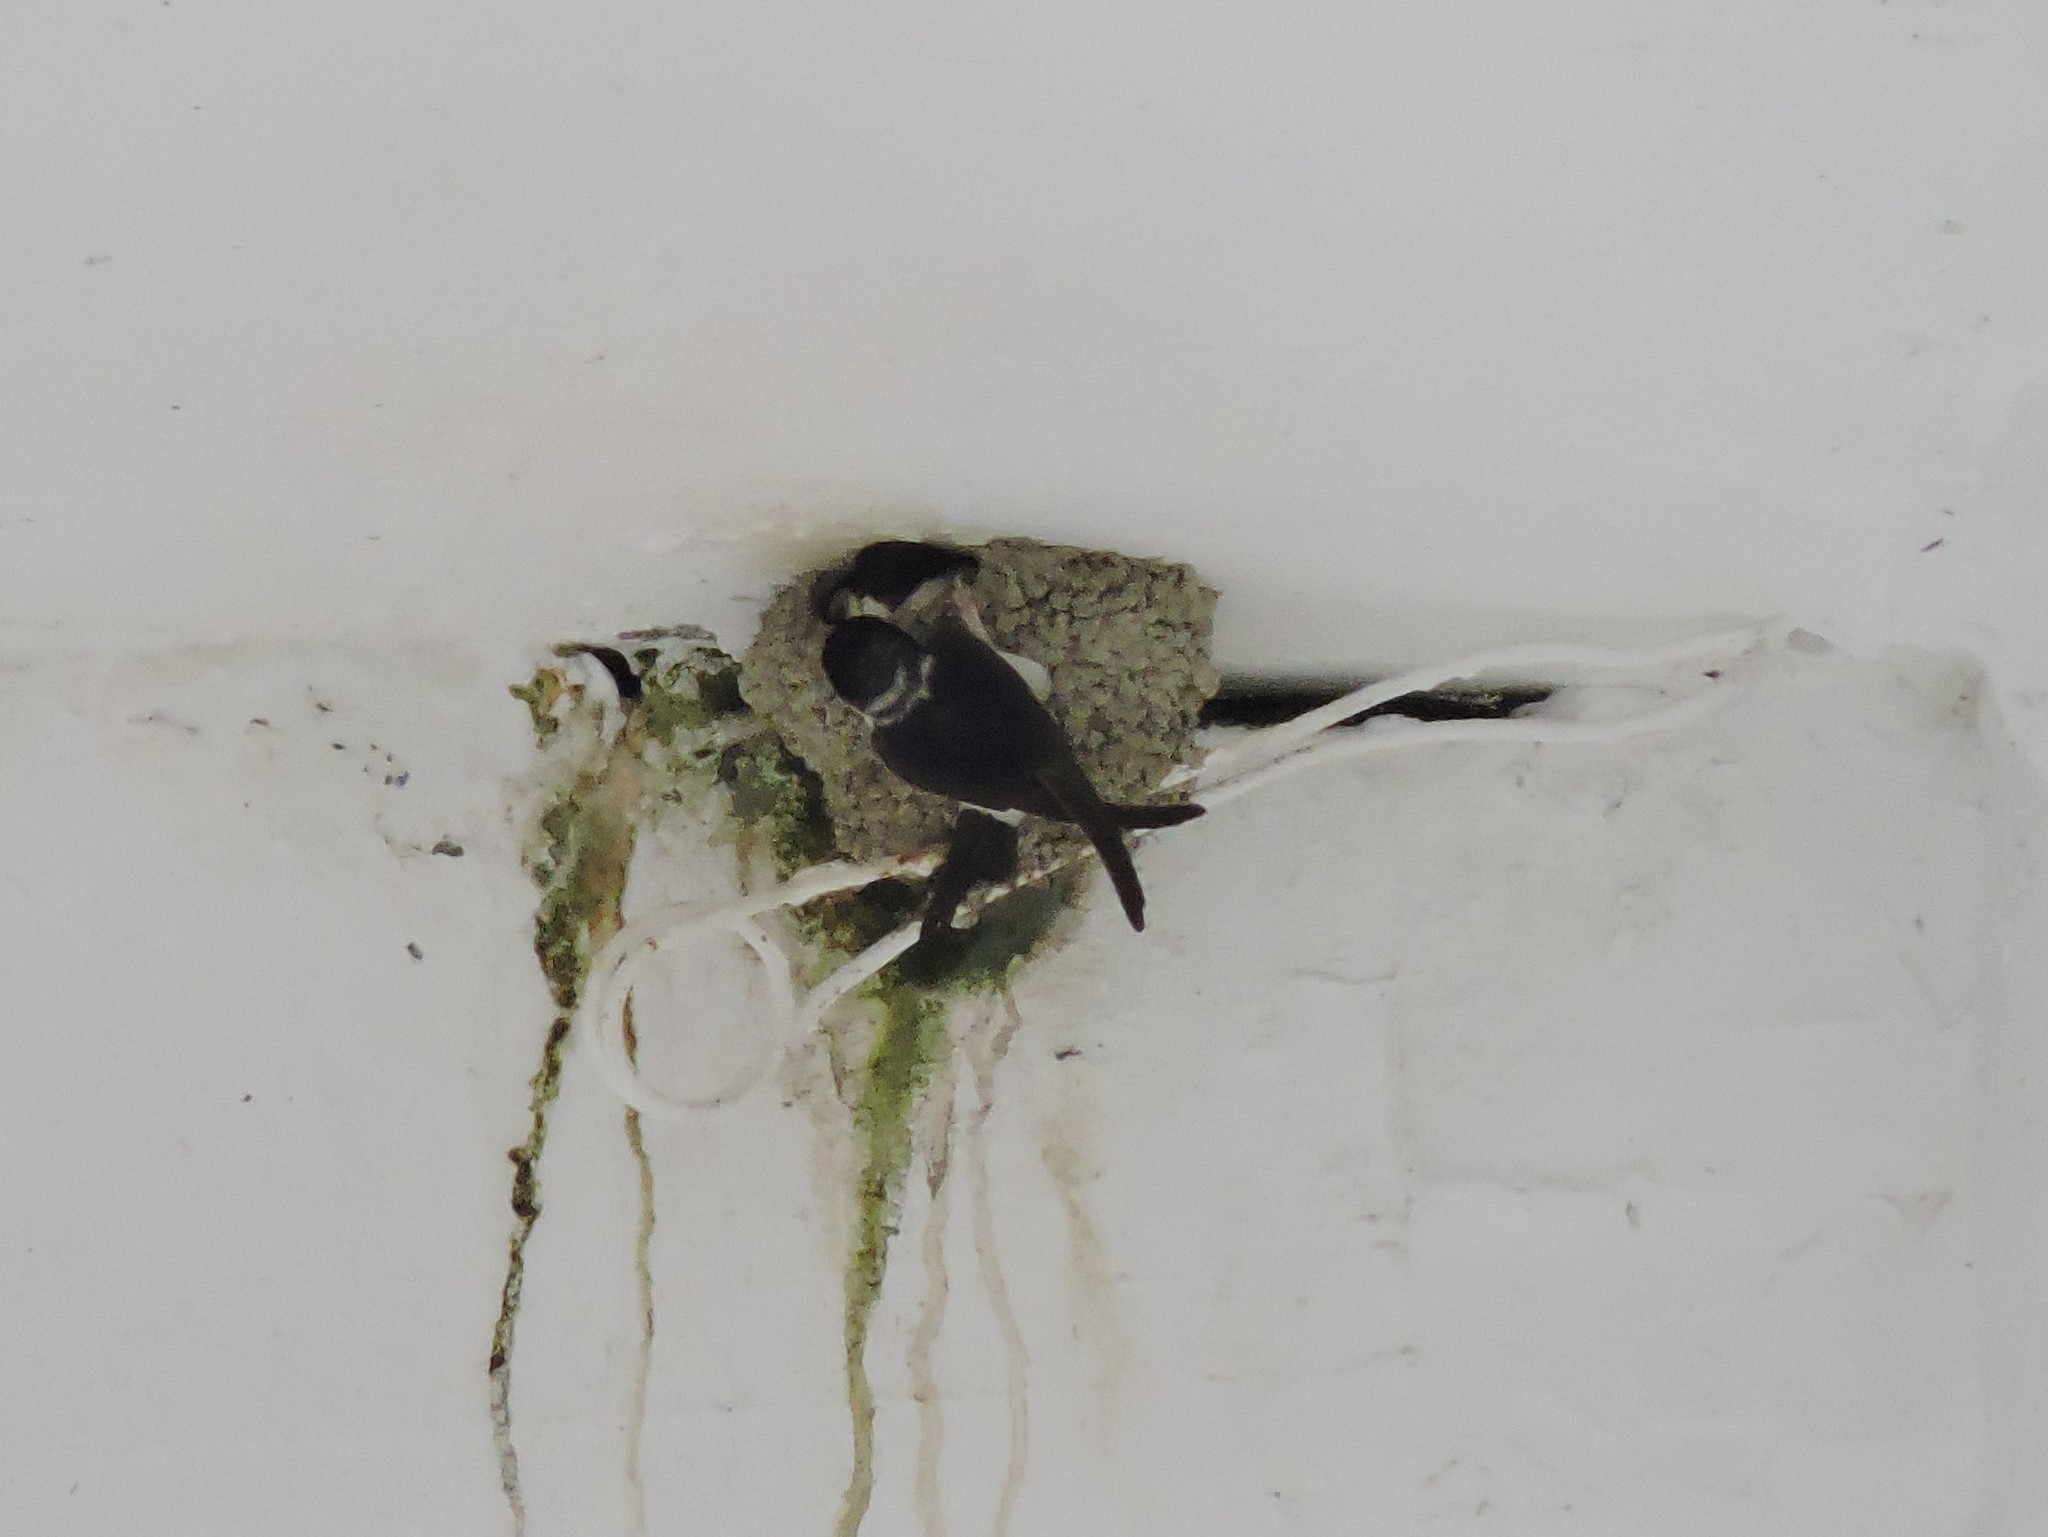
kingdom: Animalia
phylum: Chordata
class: Aves
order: Passeriformes
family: Hirundinidae
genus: Delichon
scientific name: Delichon urbicum
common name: Common house martin
